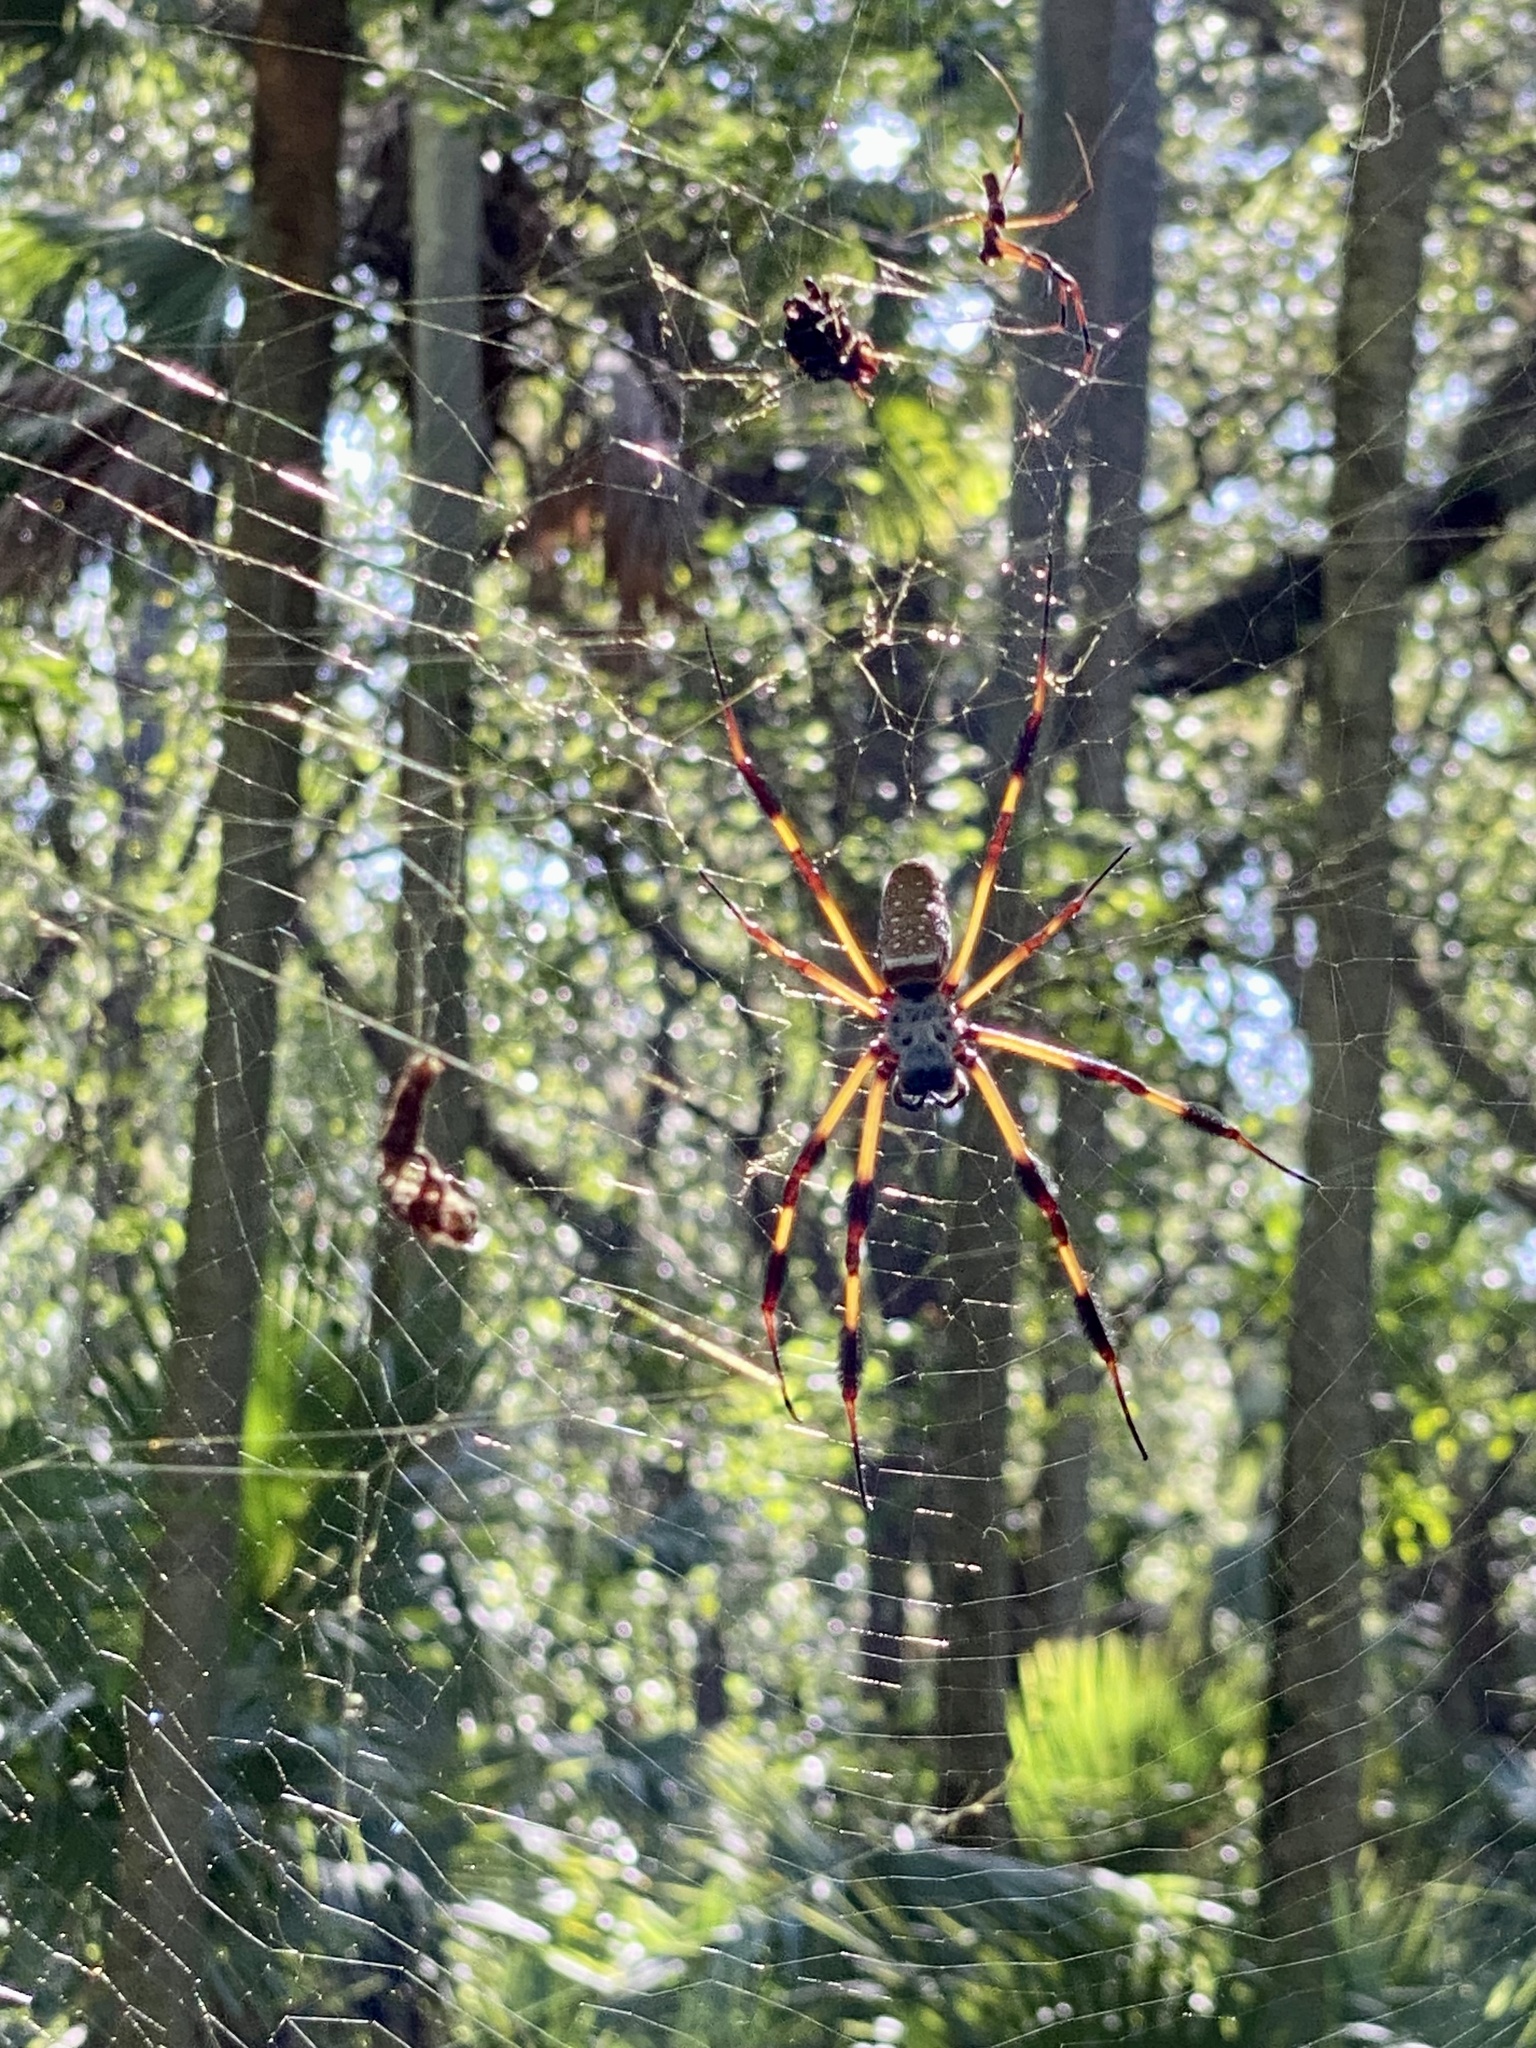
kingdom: Animalia
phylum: Arthropoda
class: Arachnida
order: Araneae
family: Araneidae
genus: Trichonephila
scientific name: Trichonephila clavipes
